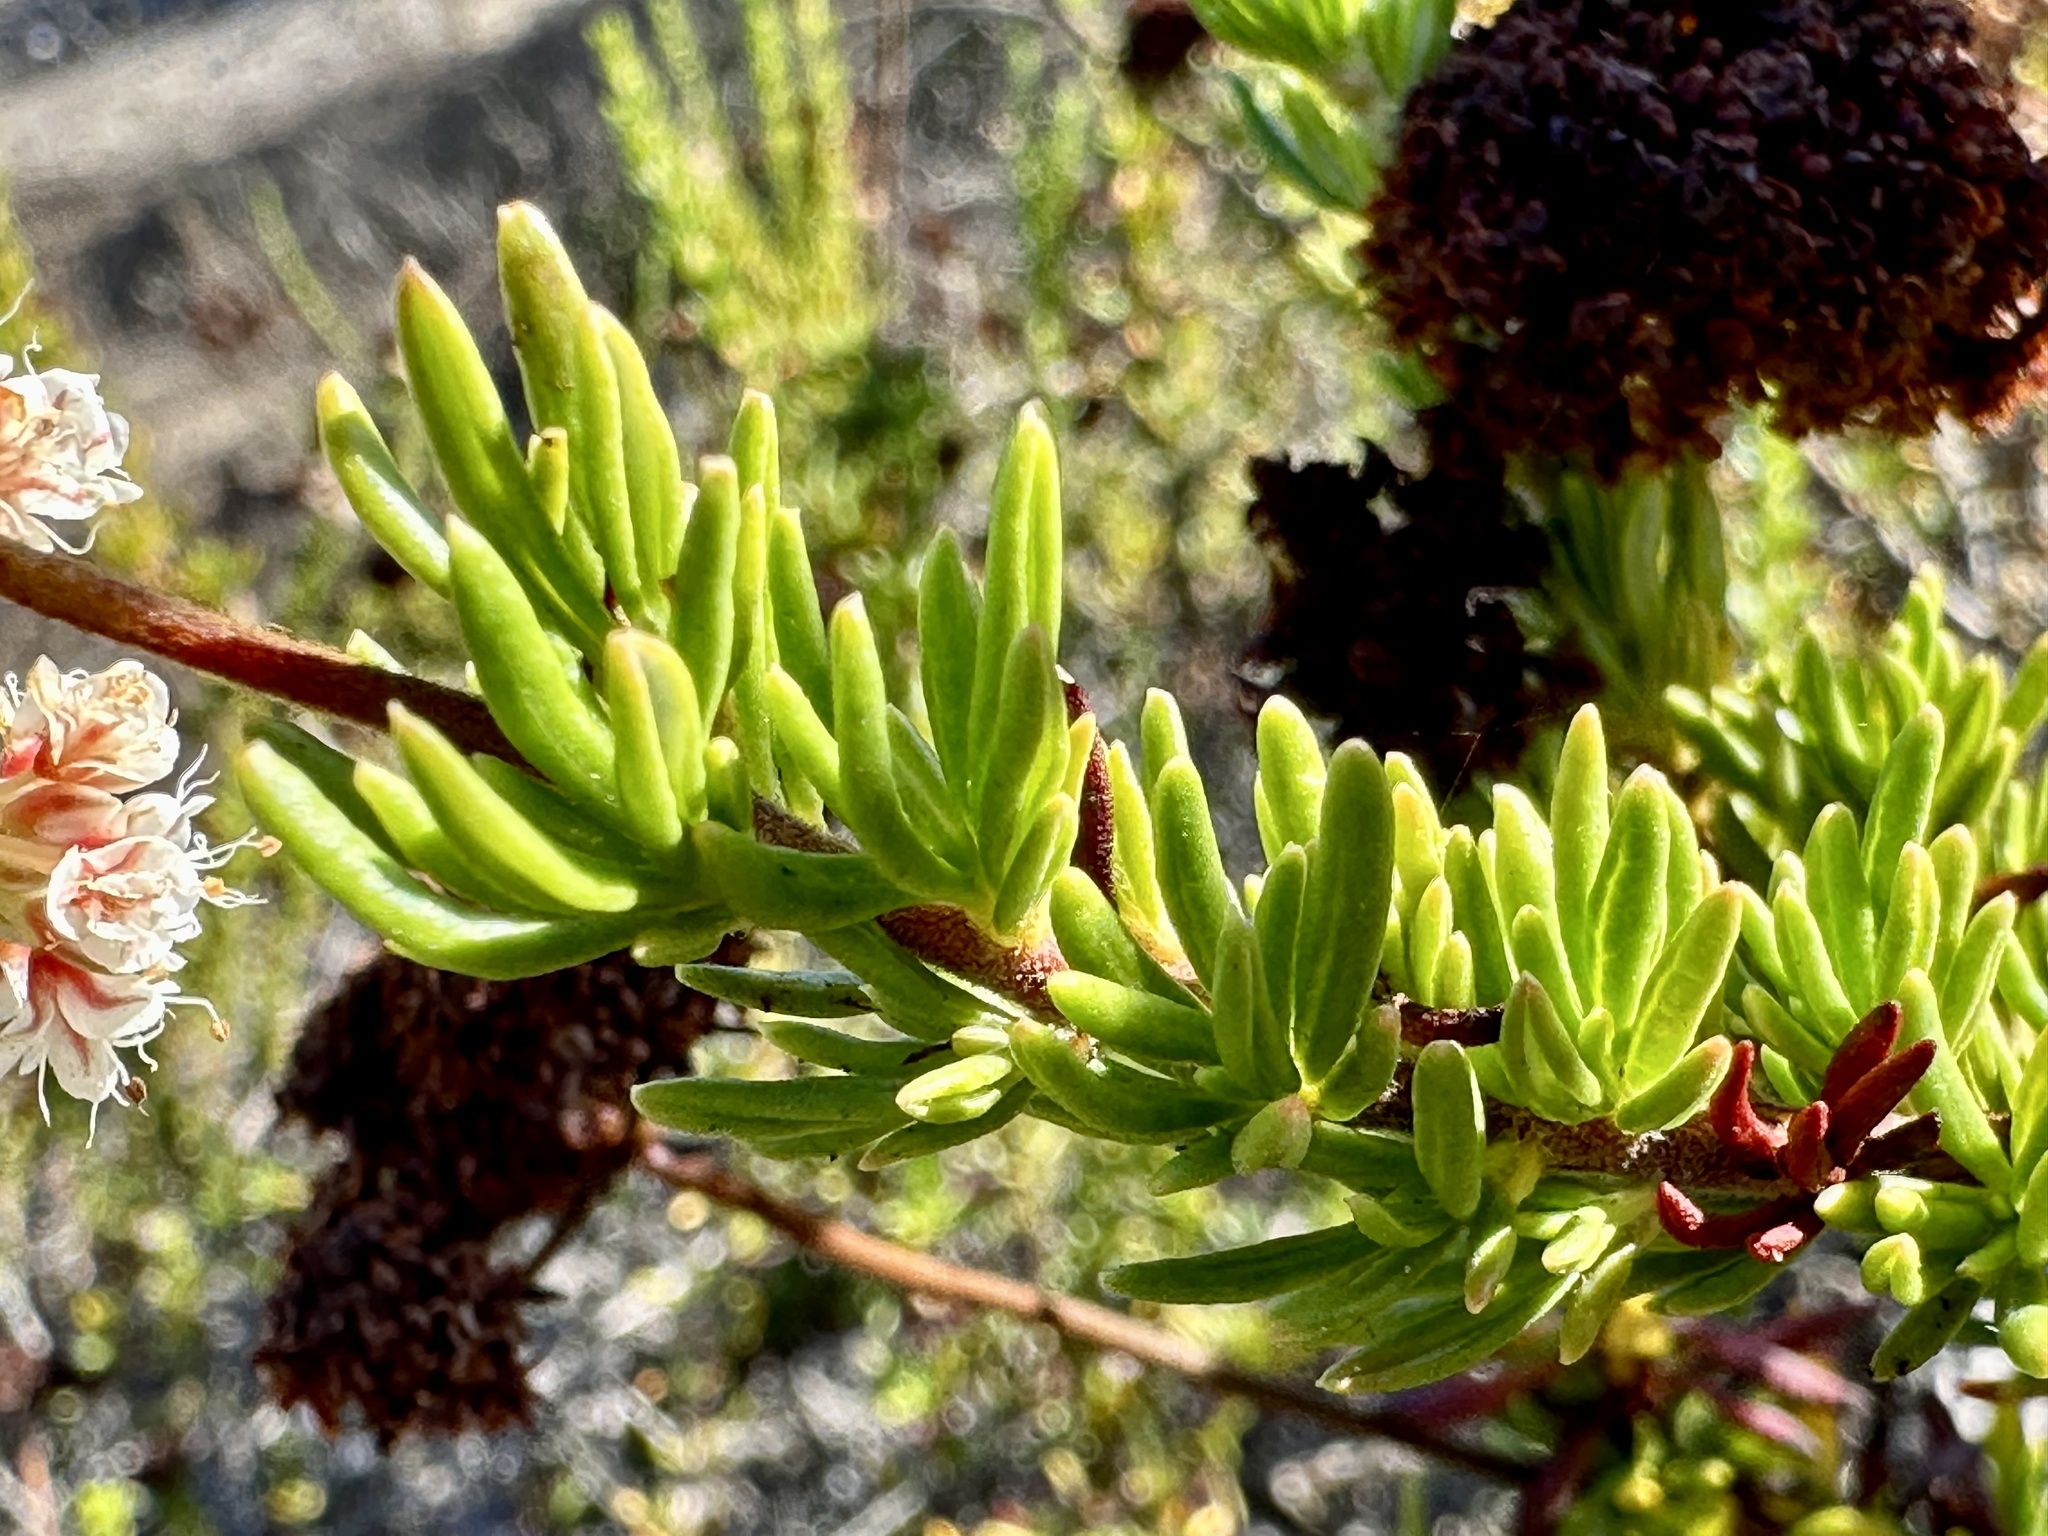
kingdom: Plantae
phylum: Tracheophyta
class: Magnoliopsida
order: Caryophyllales
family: Polygonaceae
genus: Eriogonum
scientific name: Eriogonum fasciculatum
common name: California wild buckwheat
